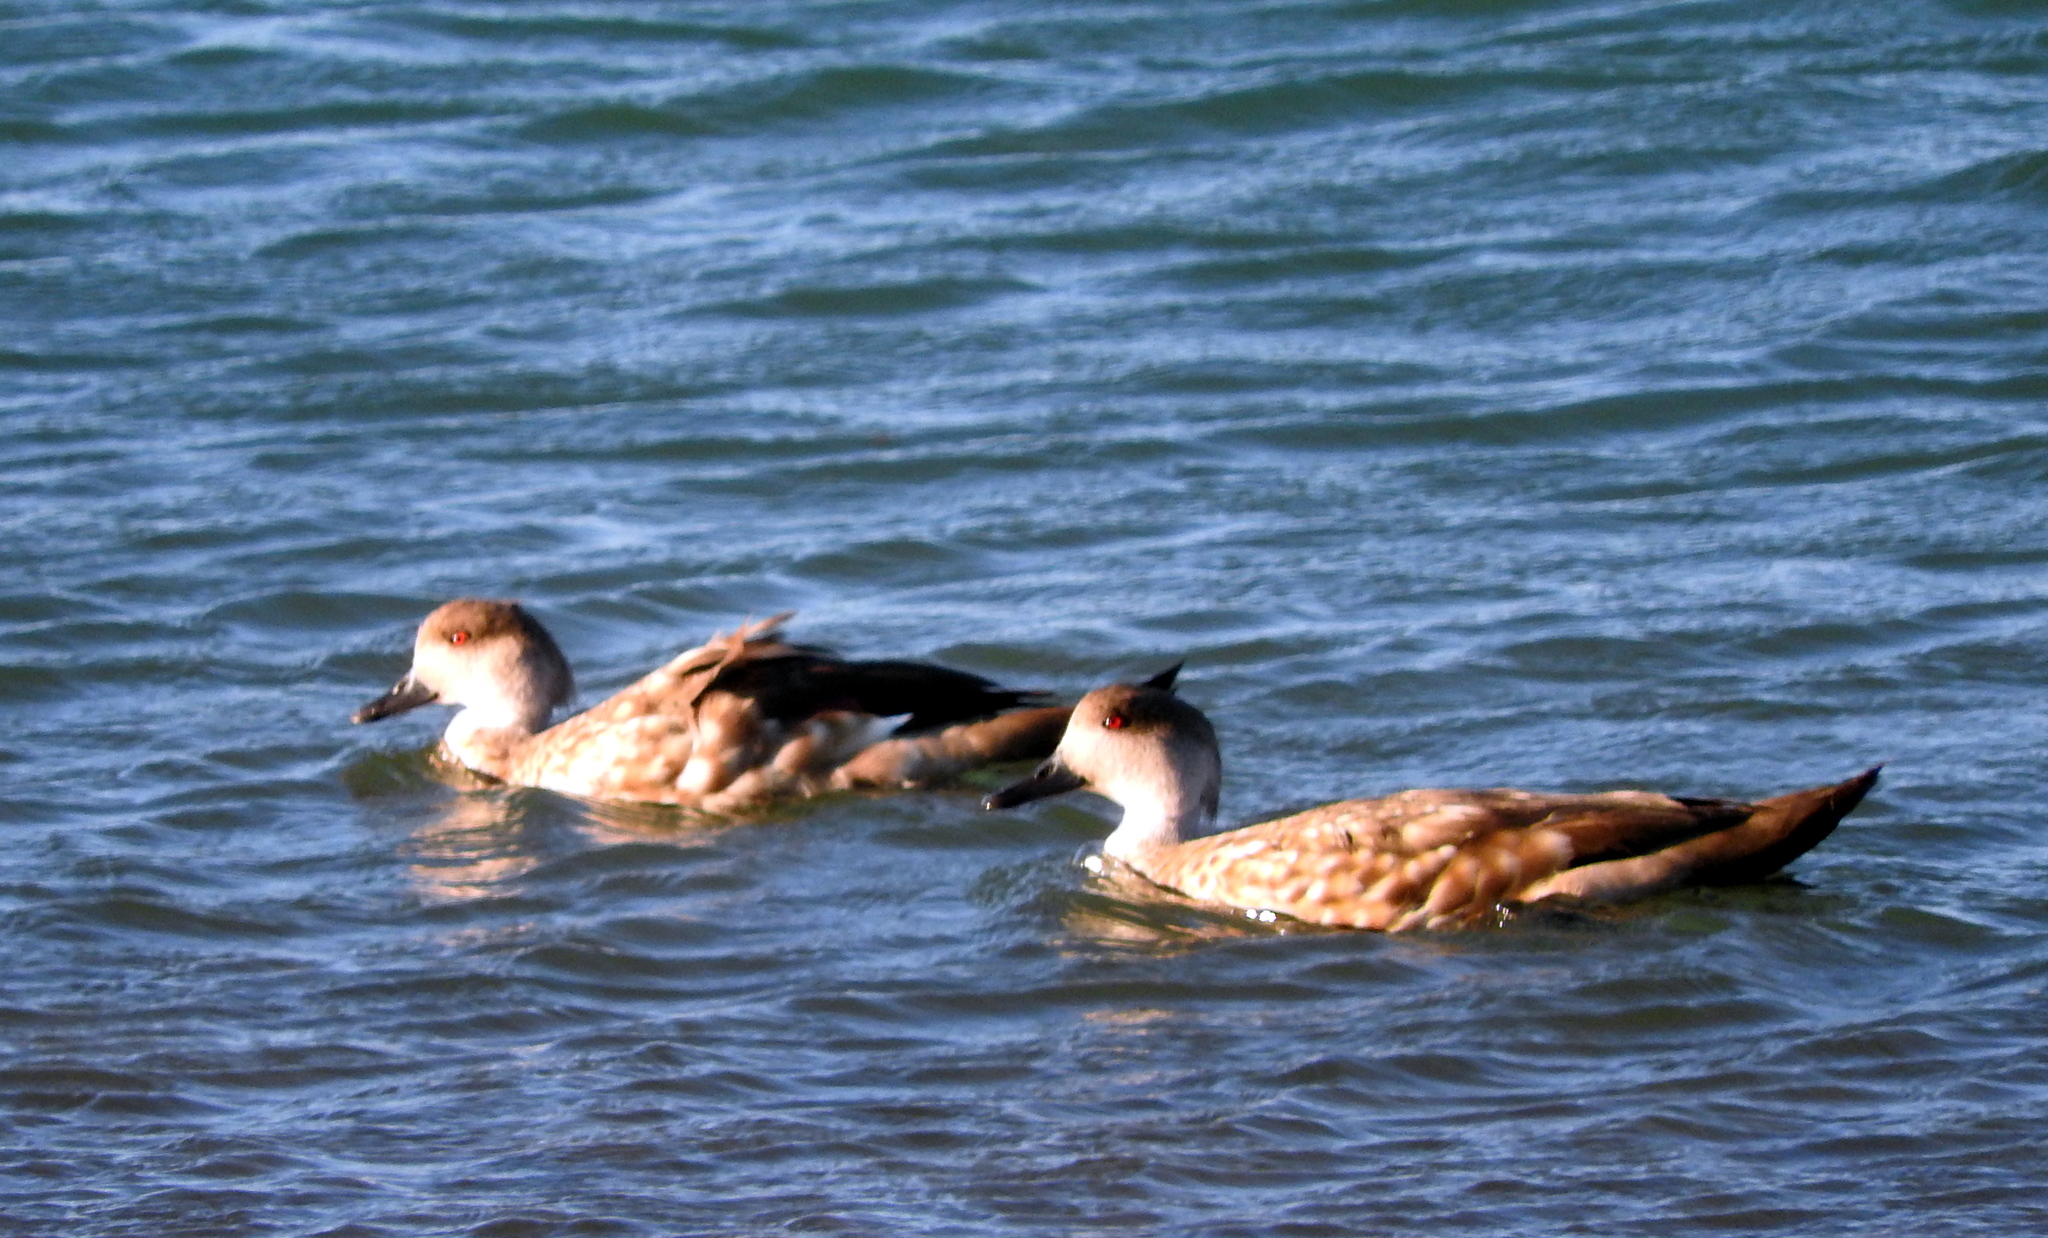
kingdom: Animalia
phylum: Chordata
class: Aves
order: Anseriformes
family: Anatidae
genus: Lophonetta
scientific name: Lophonetta specularioides
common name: Crested duck
